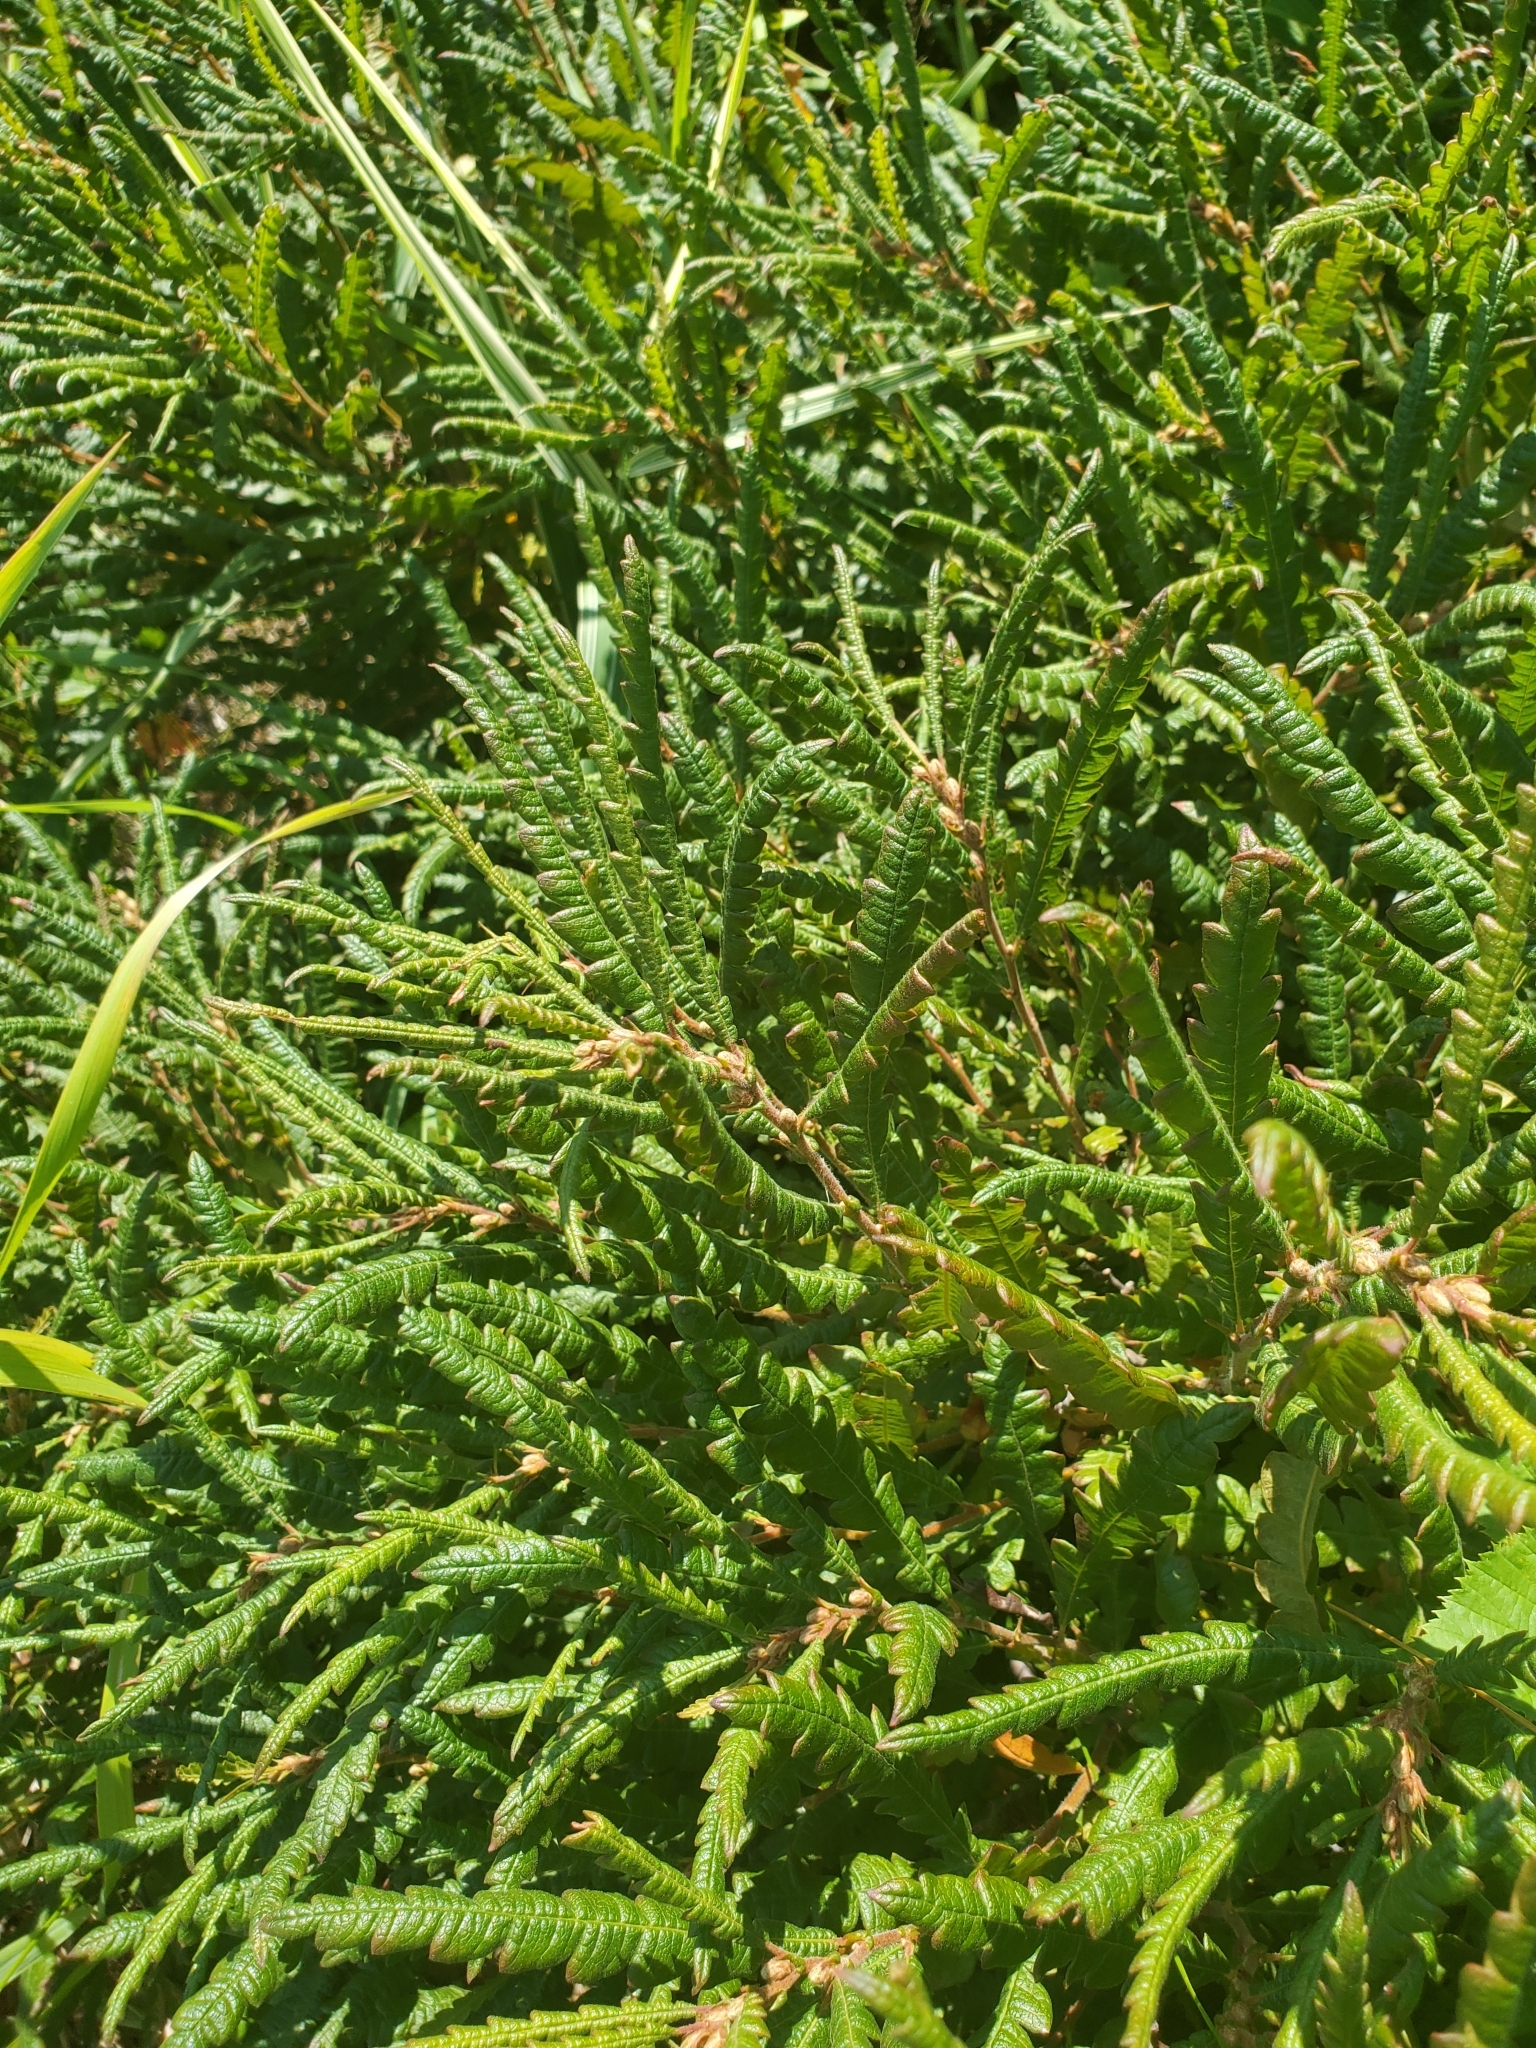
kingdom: Plantae
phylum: Tracheophyta
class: Magnoliopsida
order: Fagales
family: Myricaceae
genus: Comptonia
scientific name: Comptonia peregrina
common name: Sweet-fern
